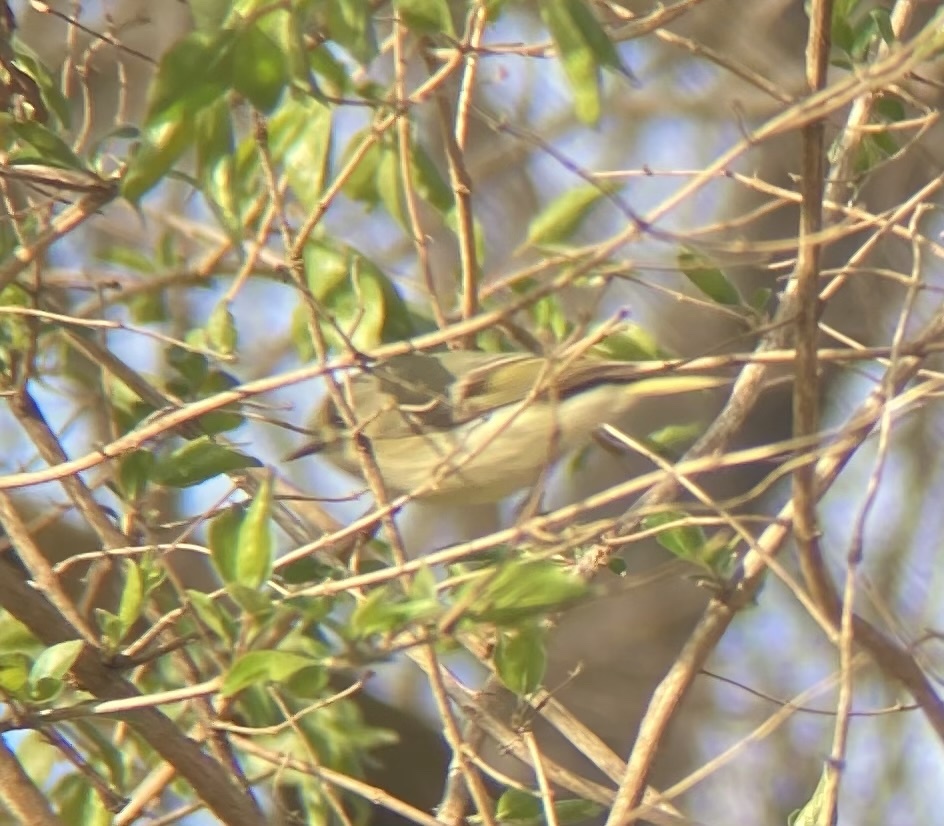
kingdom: Animalia
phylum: Chordata
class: Aves
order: Passeriformes
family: Regulidae
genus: Regulus
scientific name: Regulus calendula
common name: Ruby-crowned kinglet
